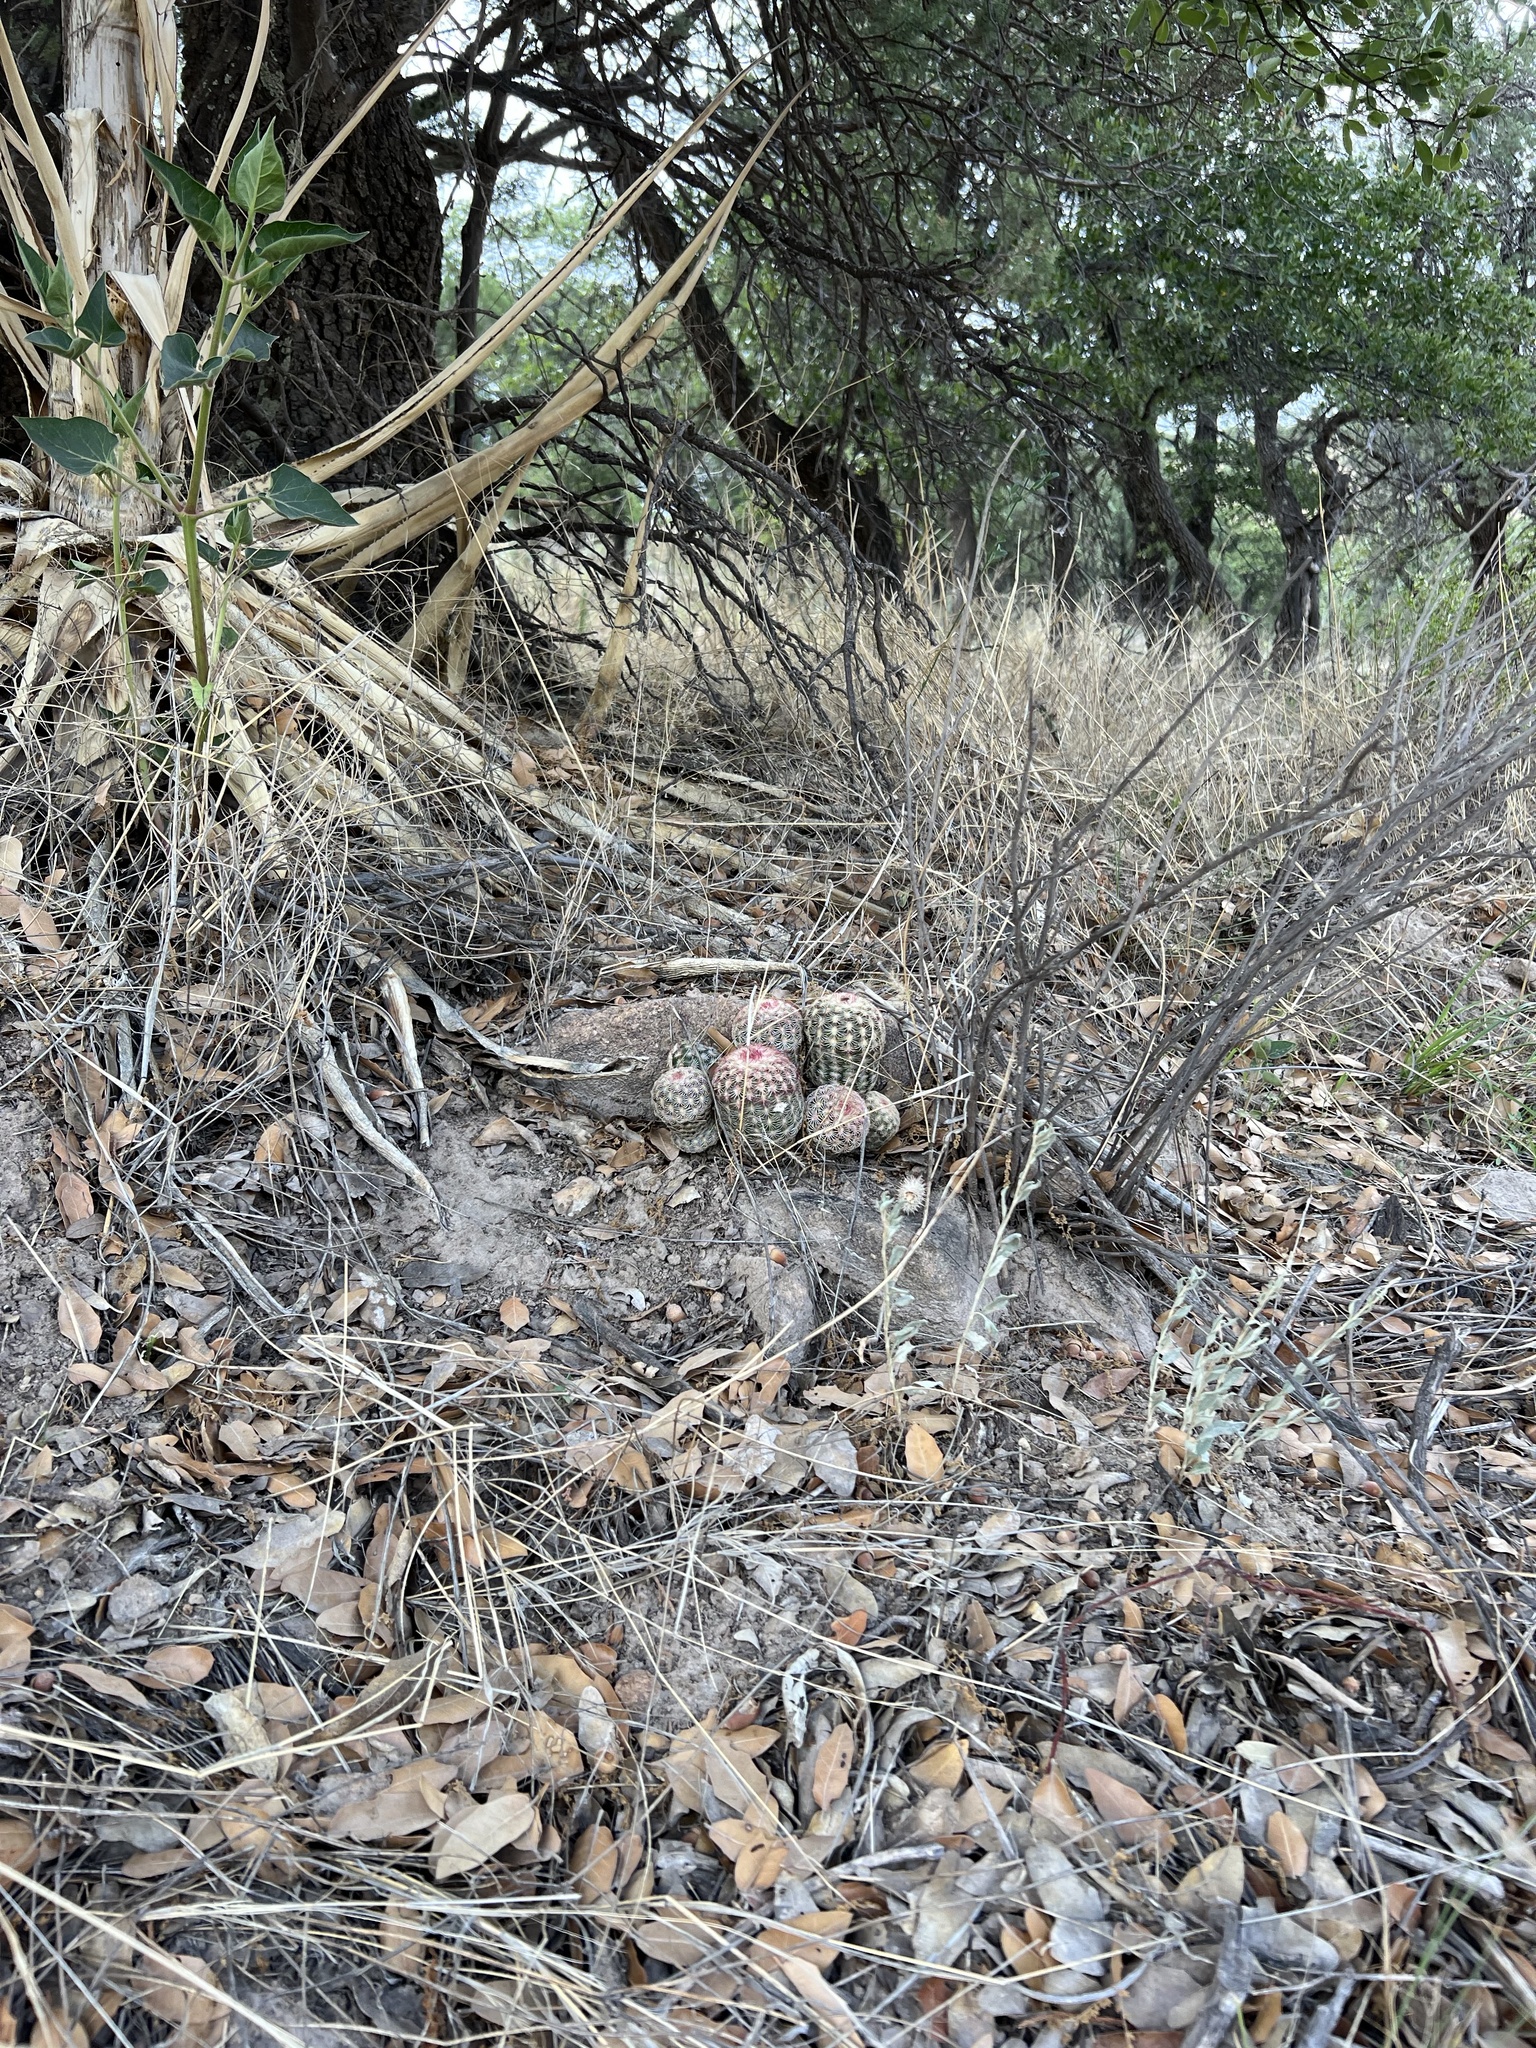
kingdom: Plantae
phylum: Tracheophyta
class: Magnoliopsida
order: Caryophyllales
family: Cactaceae
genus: Echinocereus
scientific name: Echinocereus rigidissimus
